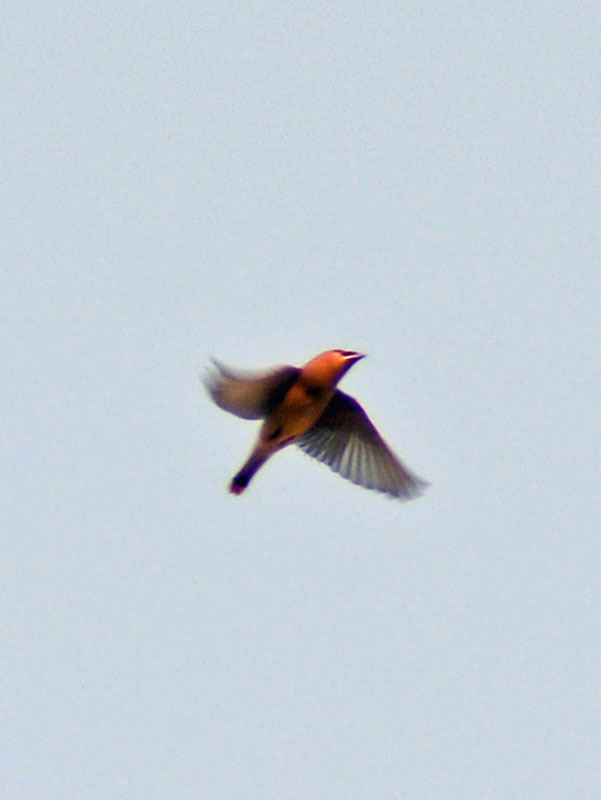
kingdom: Animalia
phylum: Chordata
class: Aves
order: Passeriformes
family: Bombycillidae
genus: Bombycilla
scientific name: Bombycilla cedrorum
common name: Cedar waxwing
